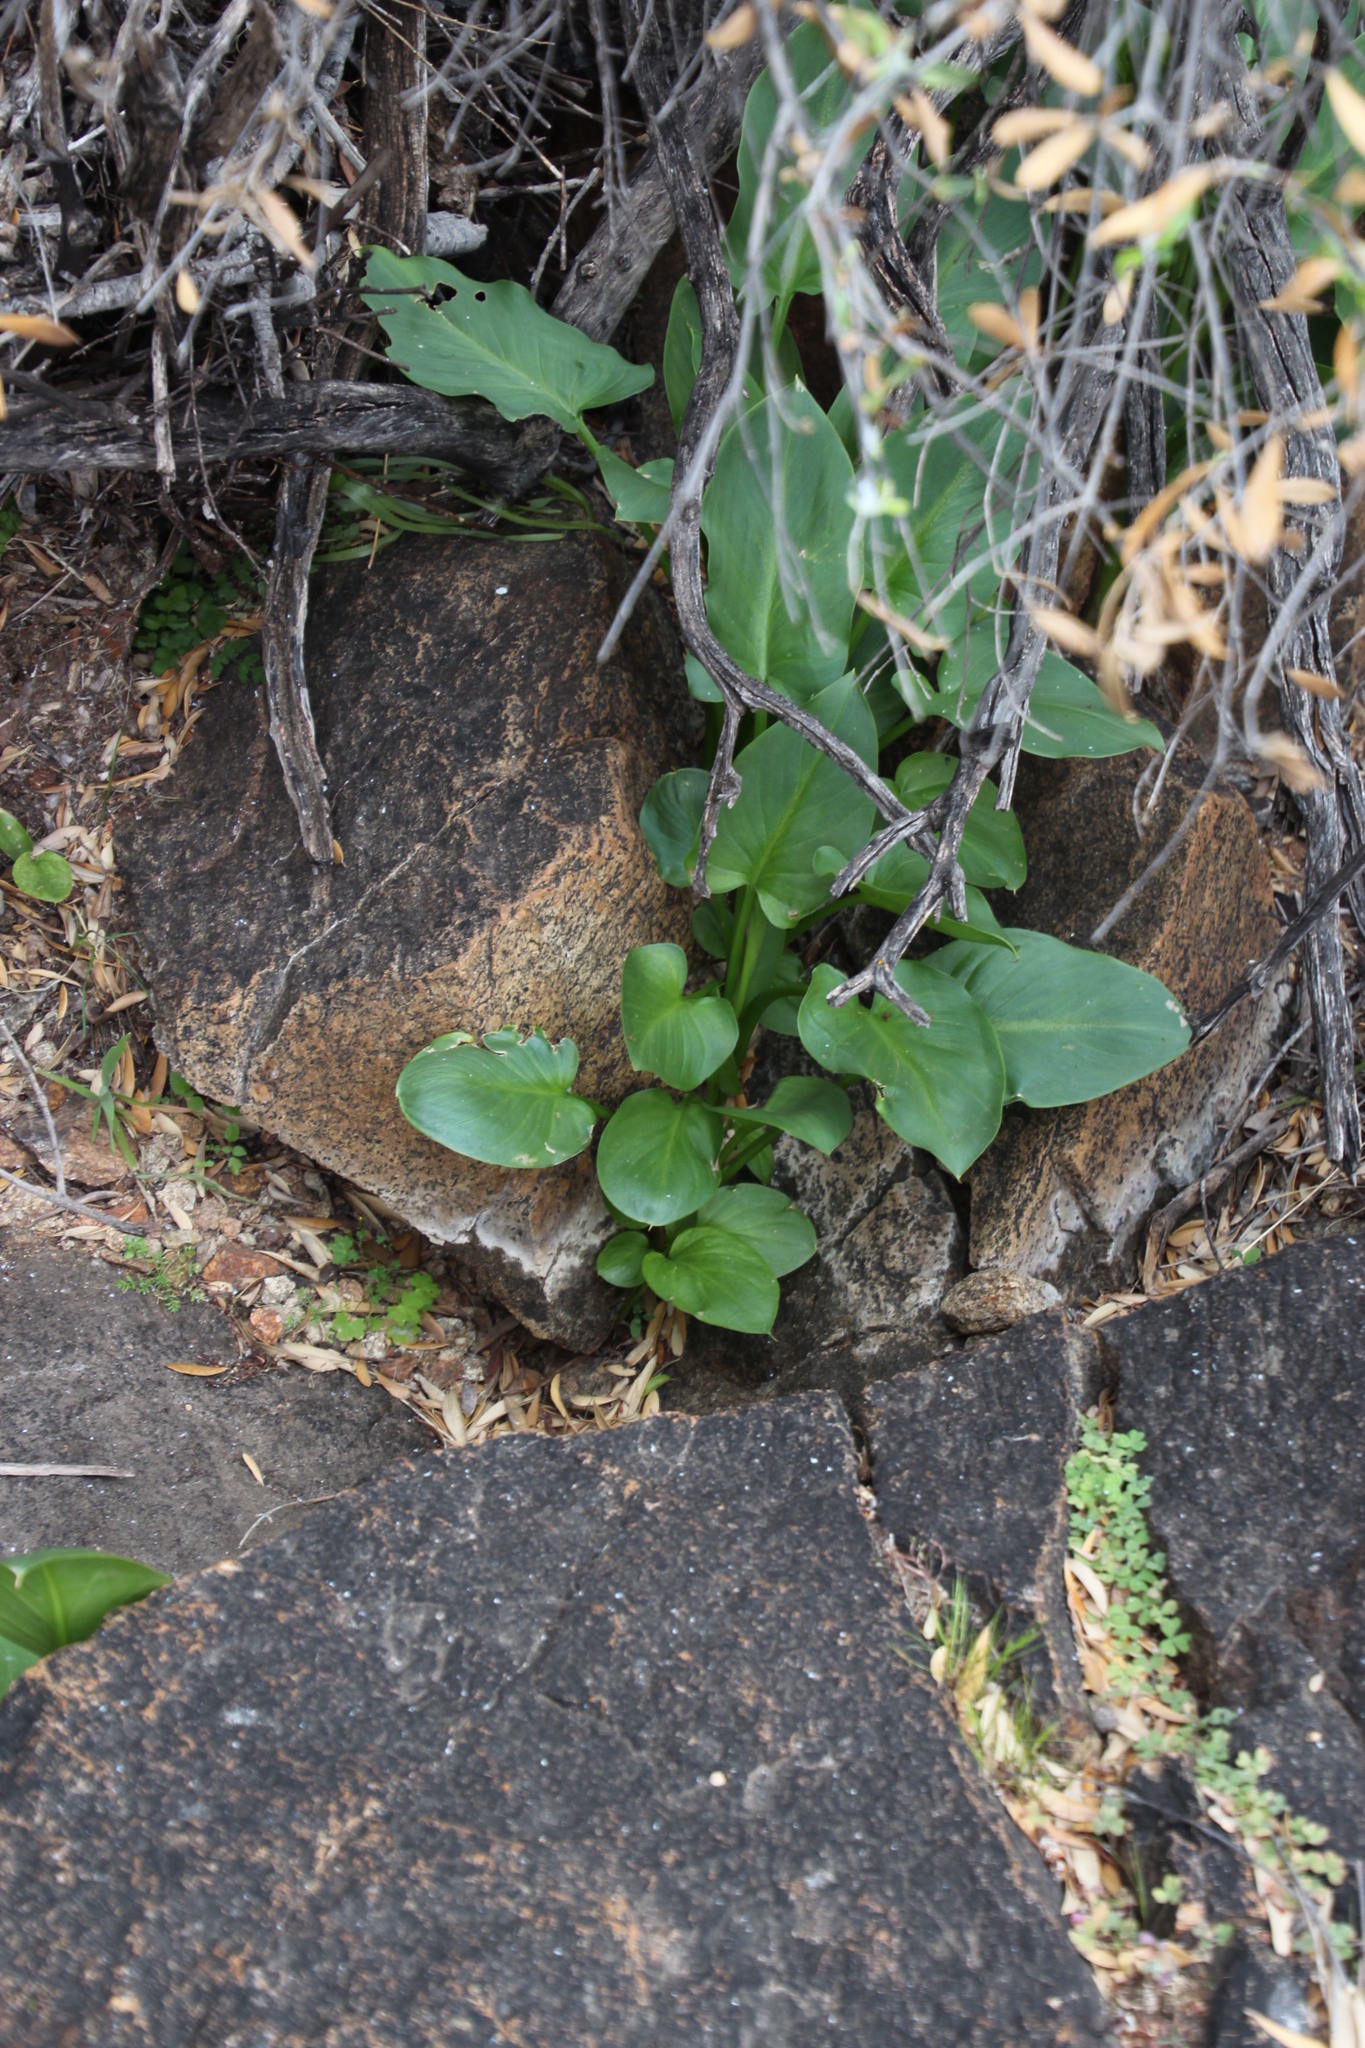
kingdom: Plantae
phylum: Tracheophyta
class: Liliopsida
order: Alismatales
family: Araceae
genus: Zantedeschia
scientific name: Zantedeschia aethiopica
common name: Altar-lily
